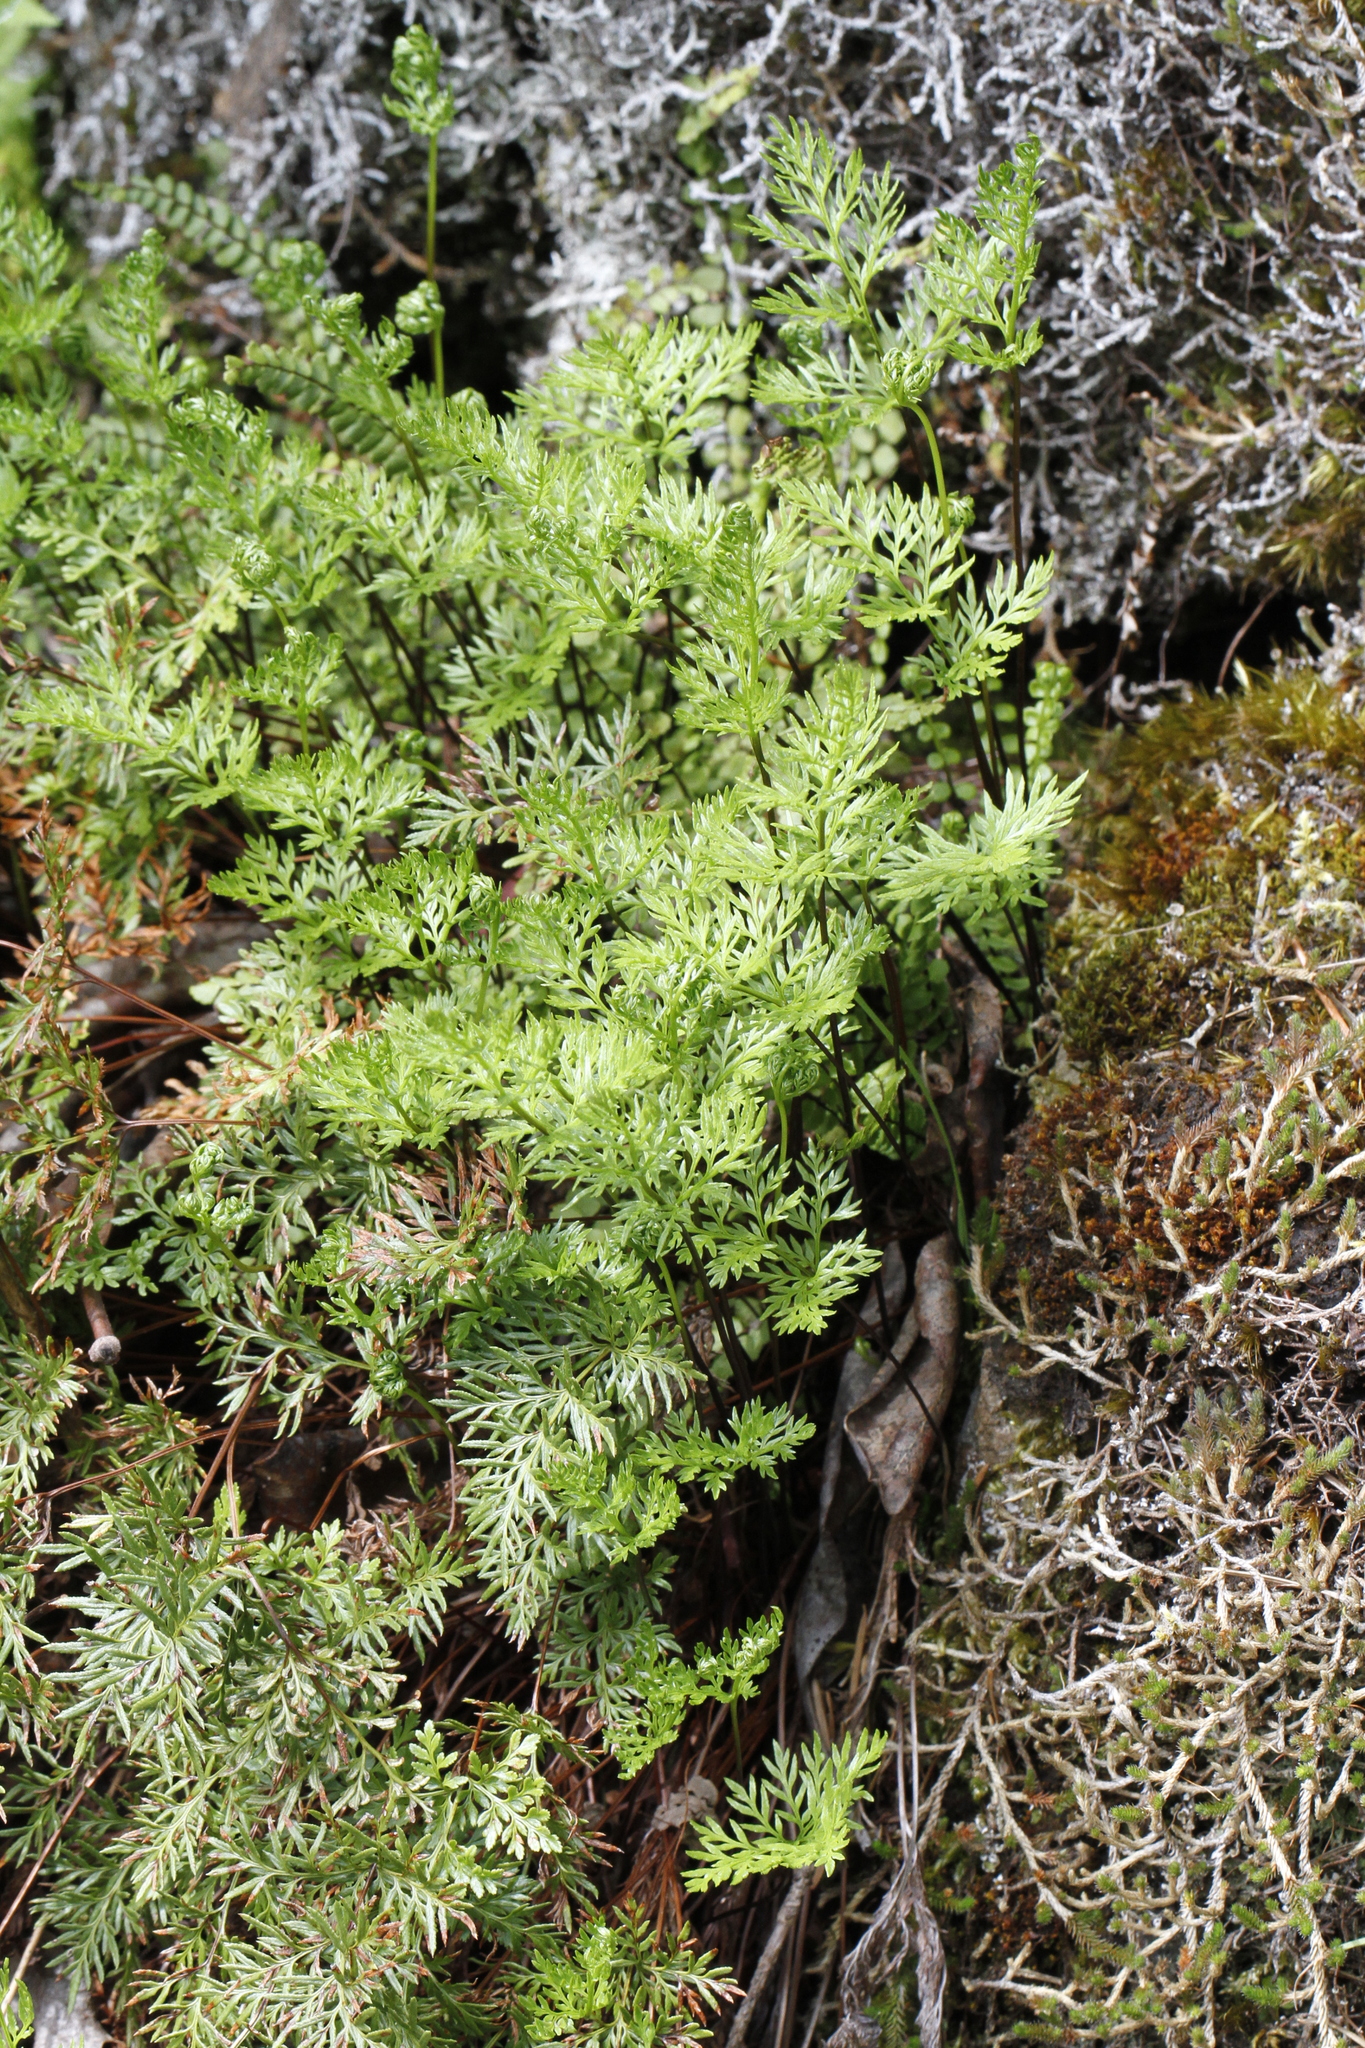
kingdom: Plantae
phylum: Tracheophyta
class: Polypodiopsida
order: Polypodiales
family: Pteridaceae
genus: Aspidotis
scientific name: Aspidotis densa
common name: Indian's dream
